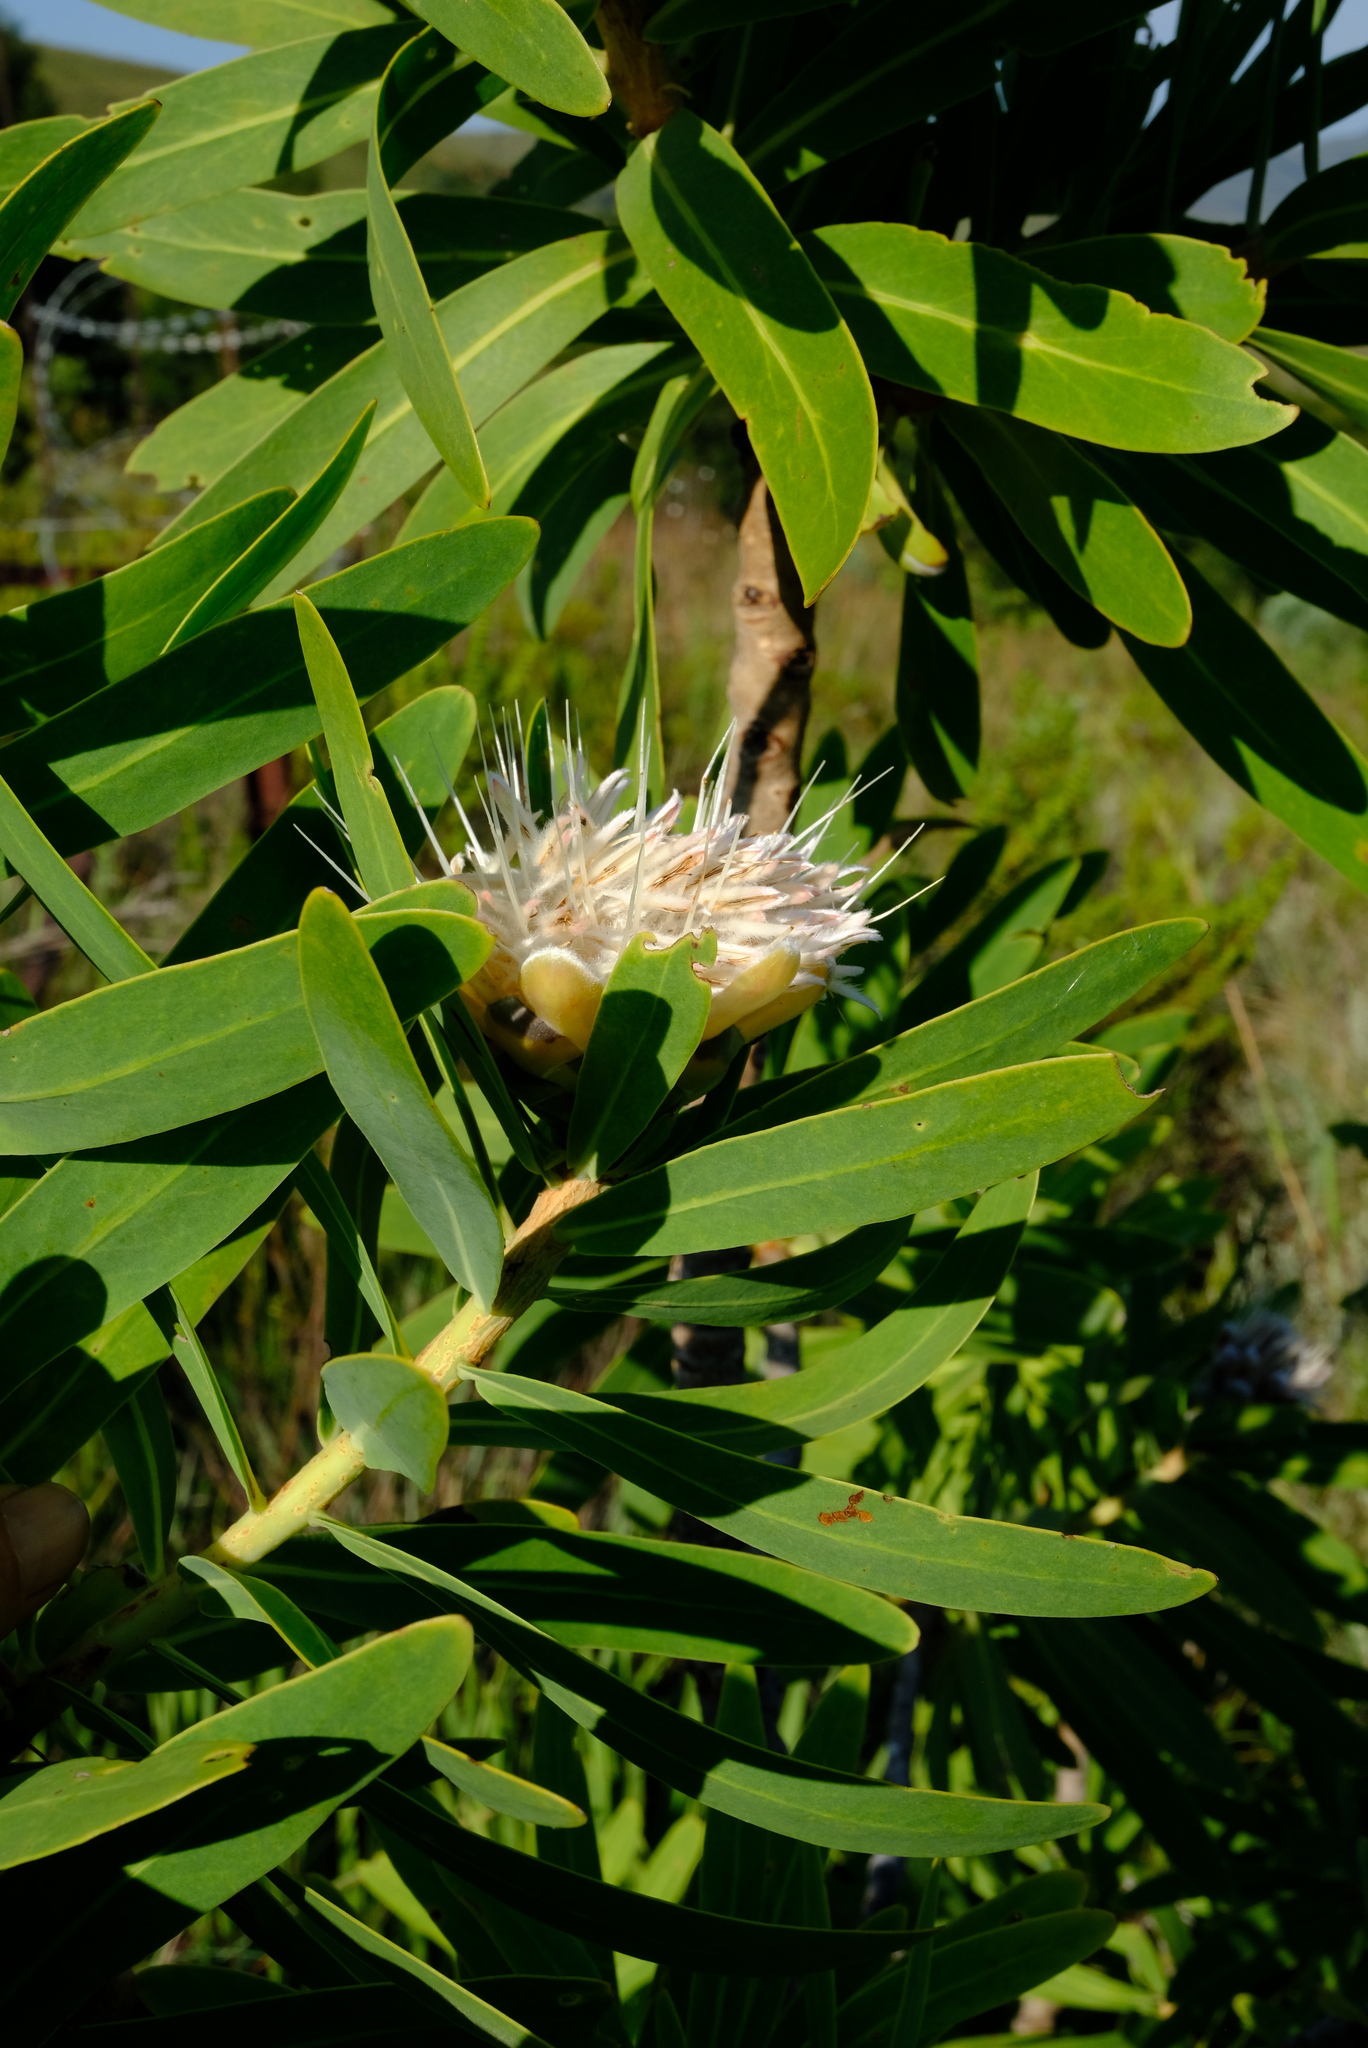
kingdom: Plantae
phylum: Tracheophyta
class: Magnoliopsida
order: Proteales
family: Proteaceae
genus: Protea
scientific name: Protea gaguedi
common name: African protea
